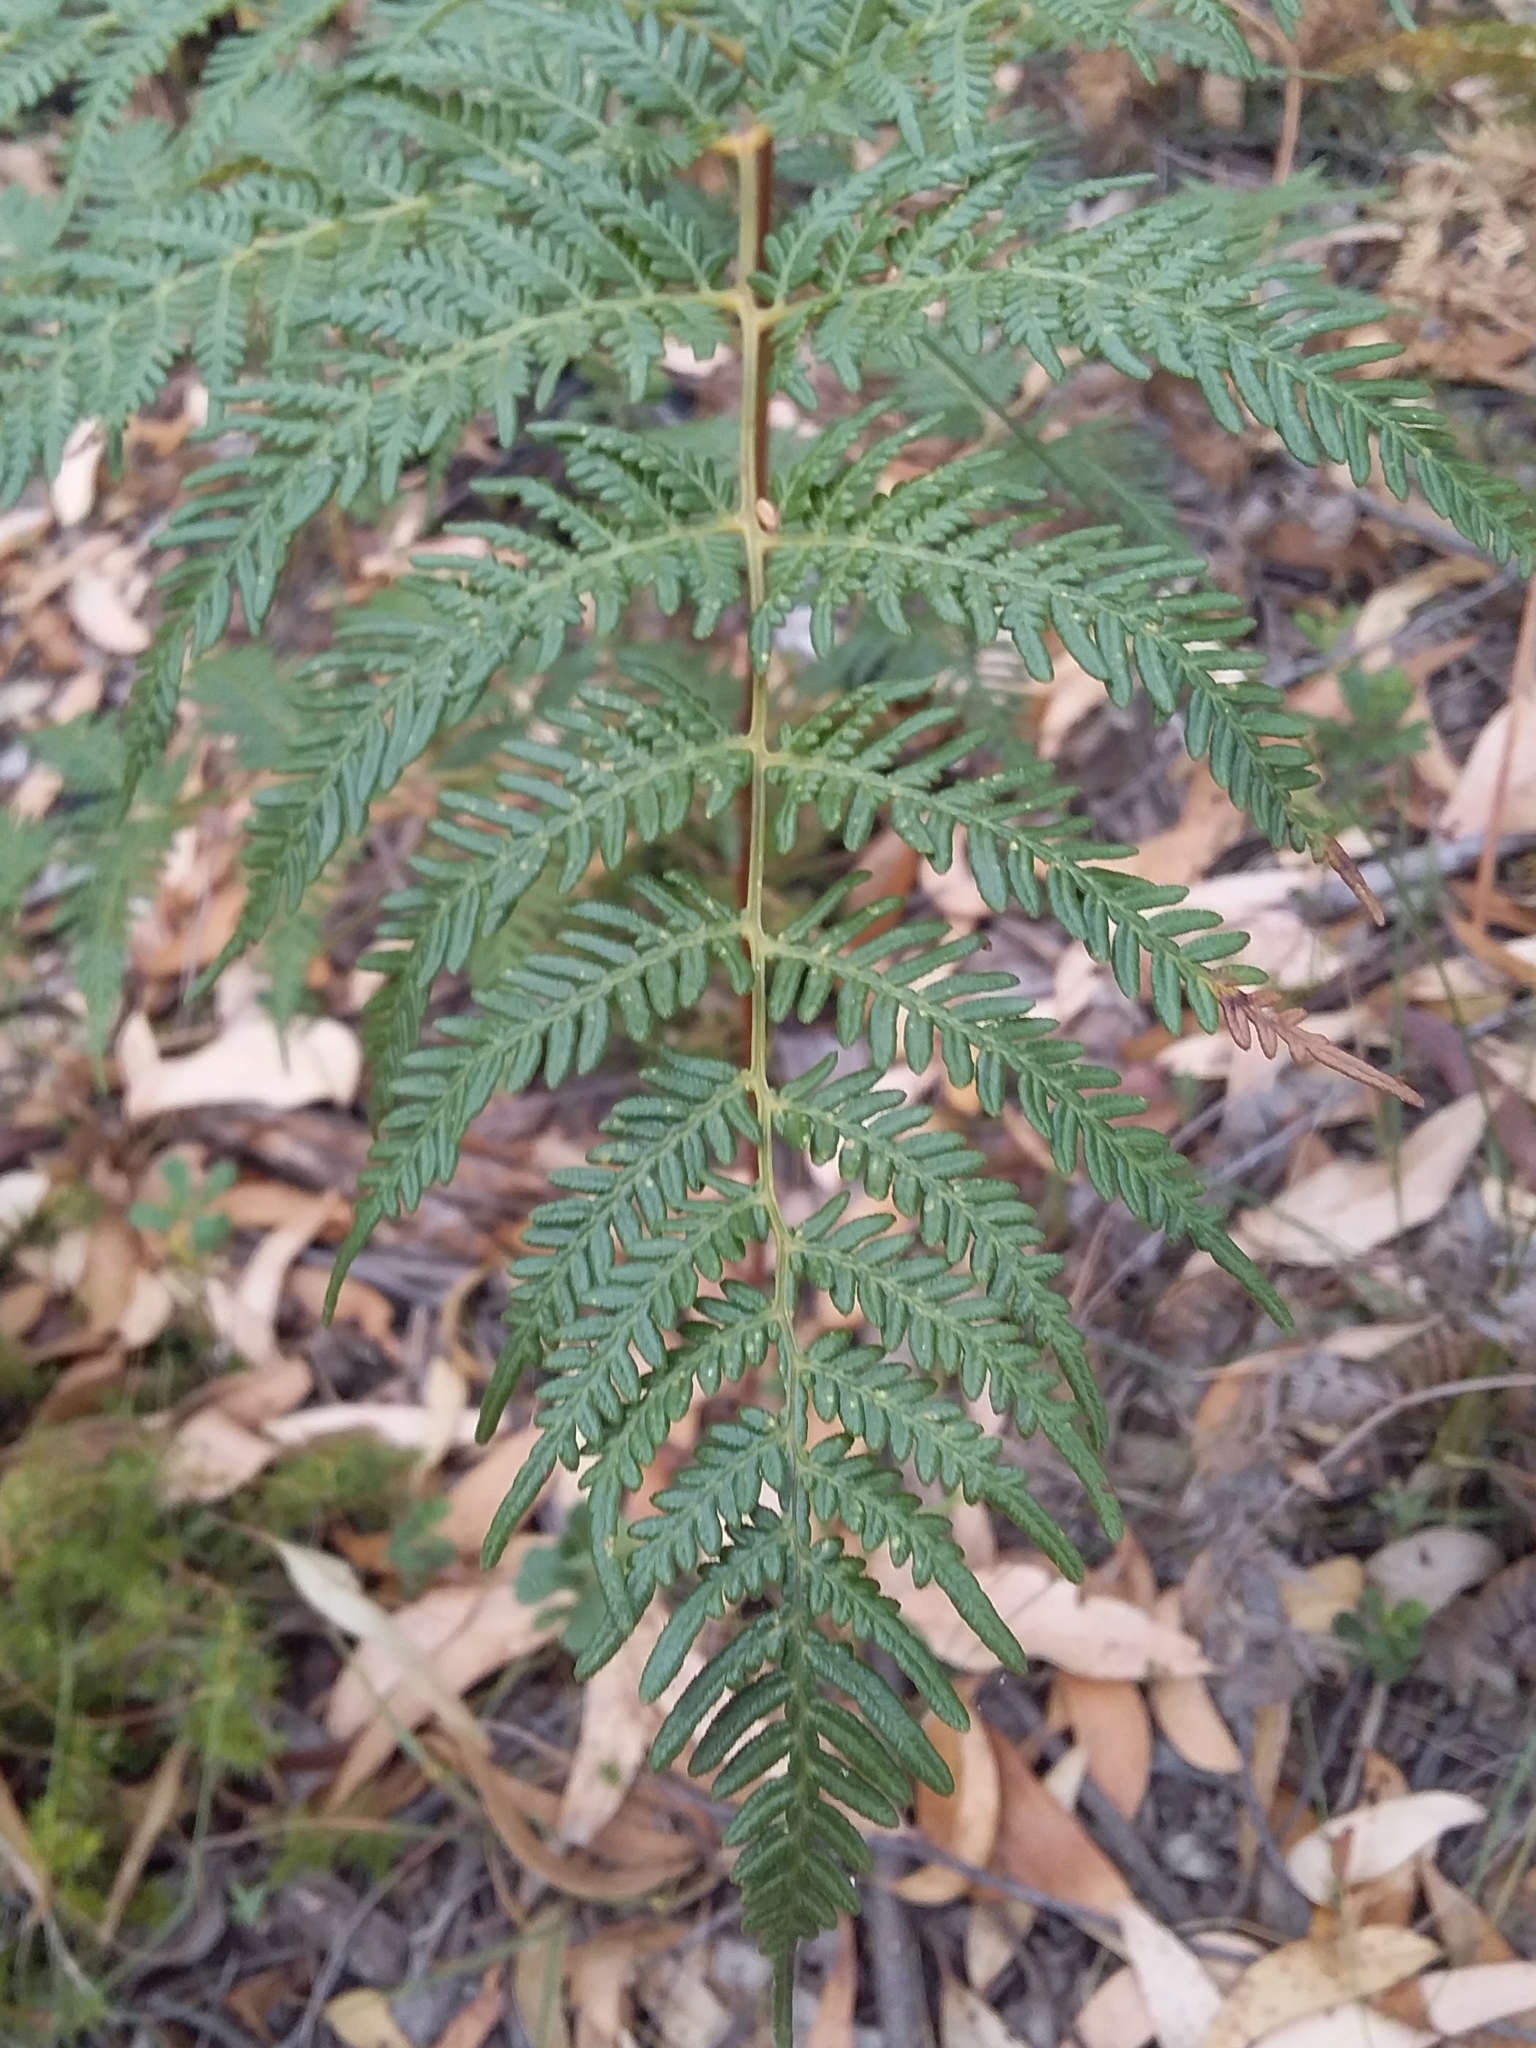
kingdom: Plantae
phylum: Tracheophyta
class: Polypodiopsida
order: Polypodiales
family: Dennstaedtiaceae
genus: Pteridium
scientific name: Pteridium esculentum
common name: Bracken fern
